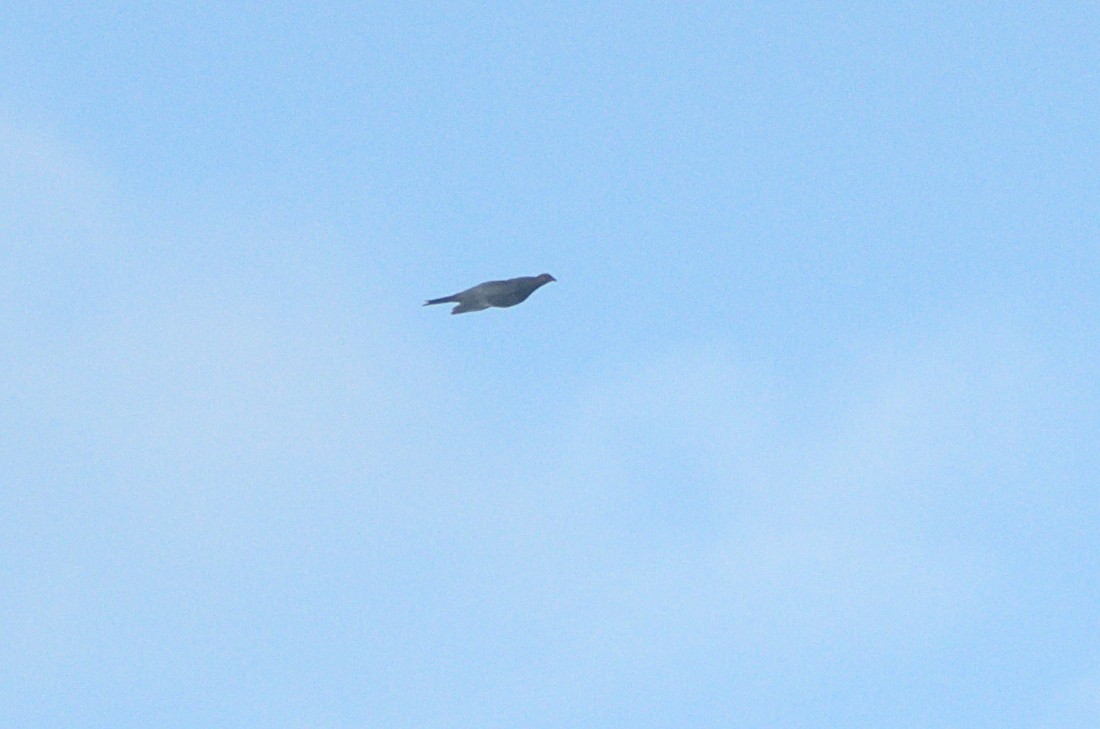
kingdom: Animalia
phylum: Chordata
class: Aves
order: Columbiformes
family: Columbidae
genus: Hemiphaga
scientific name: Hemiphaga novaeseelandiae
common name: New zealand pigeon
